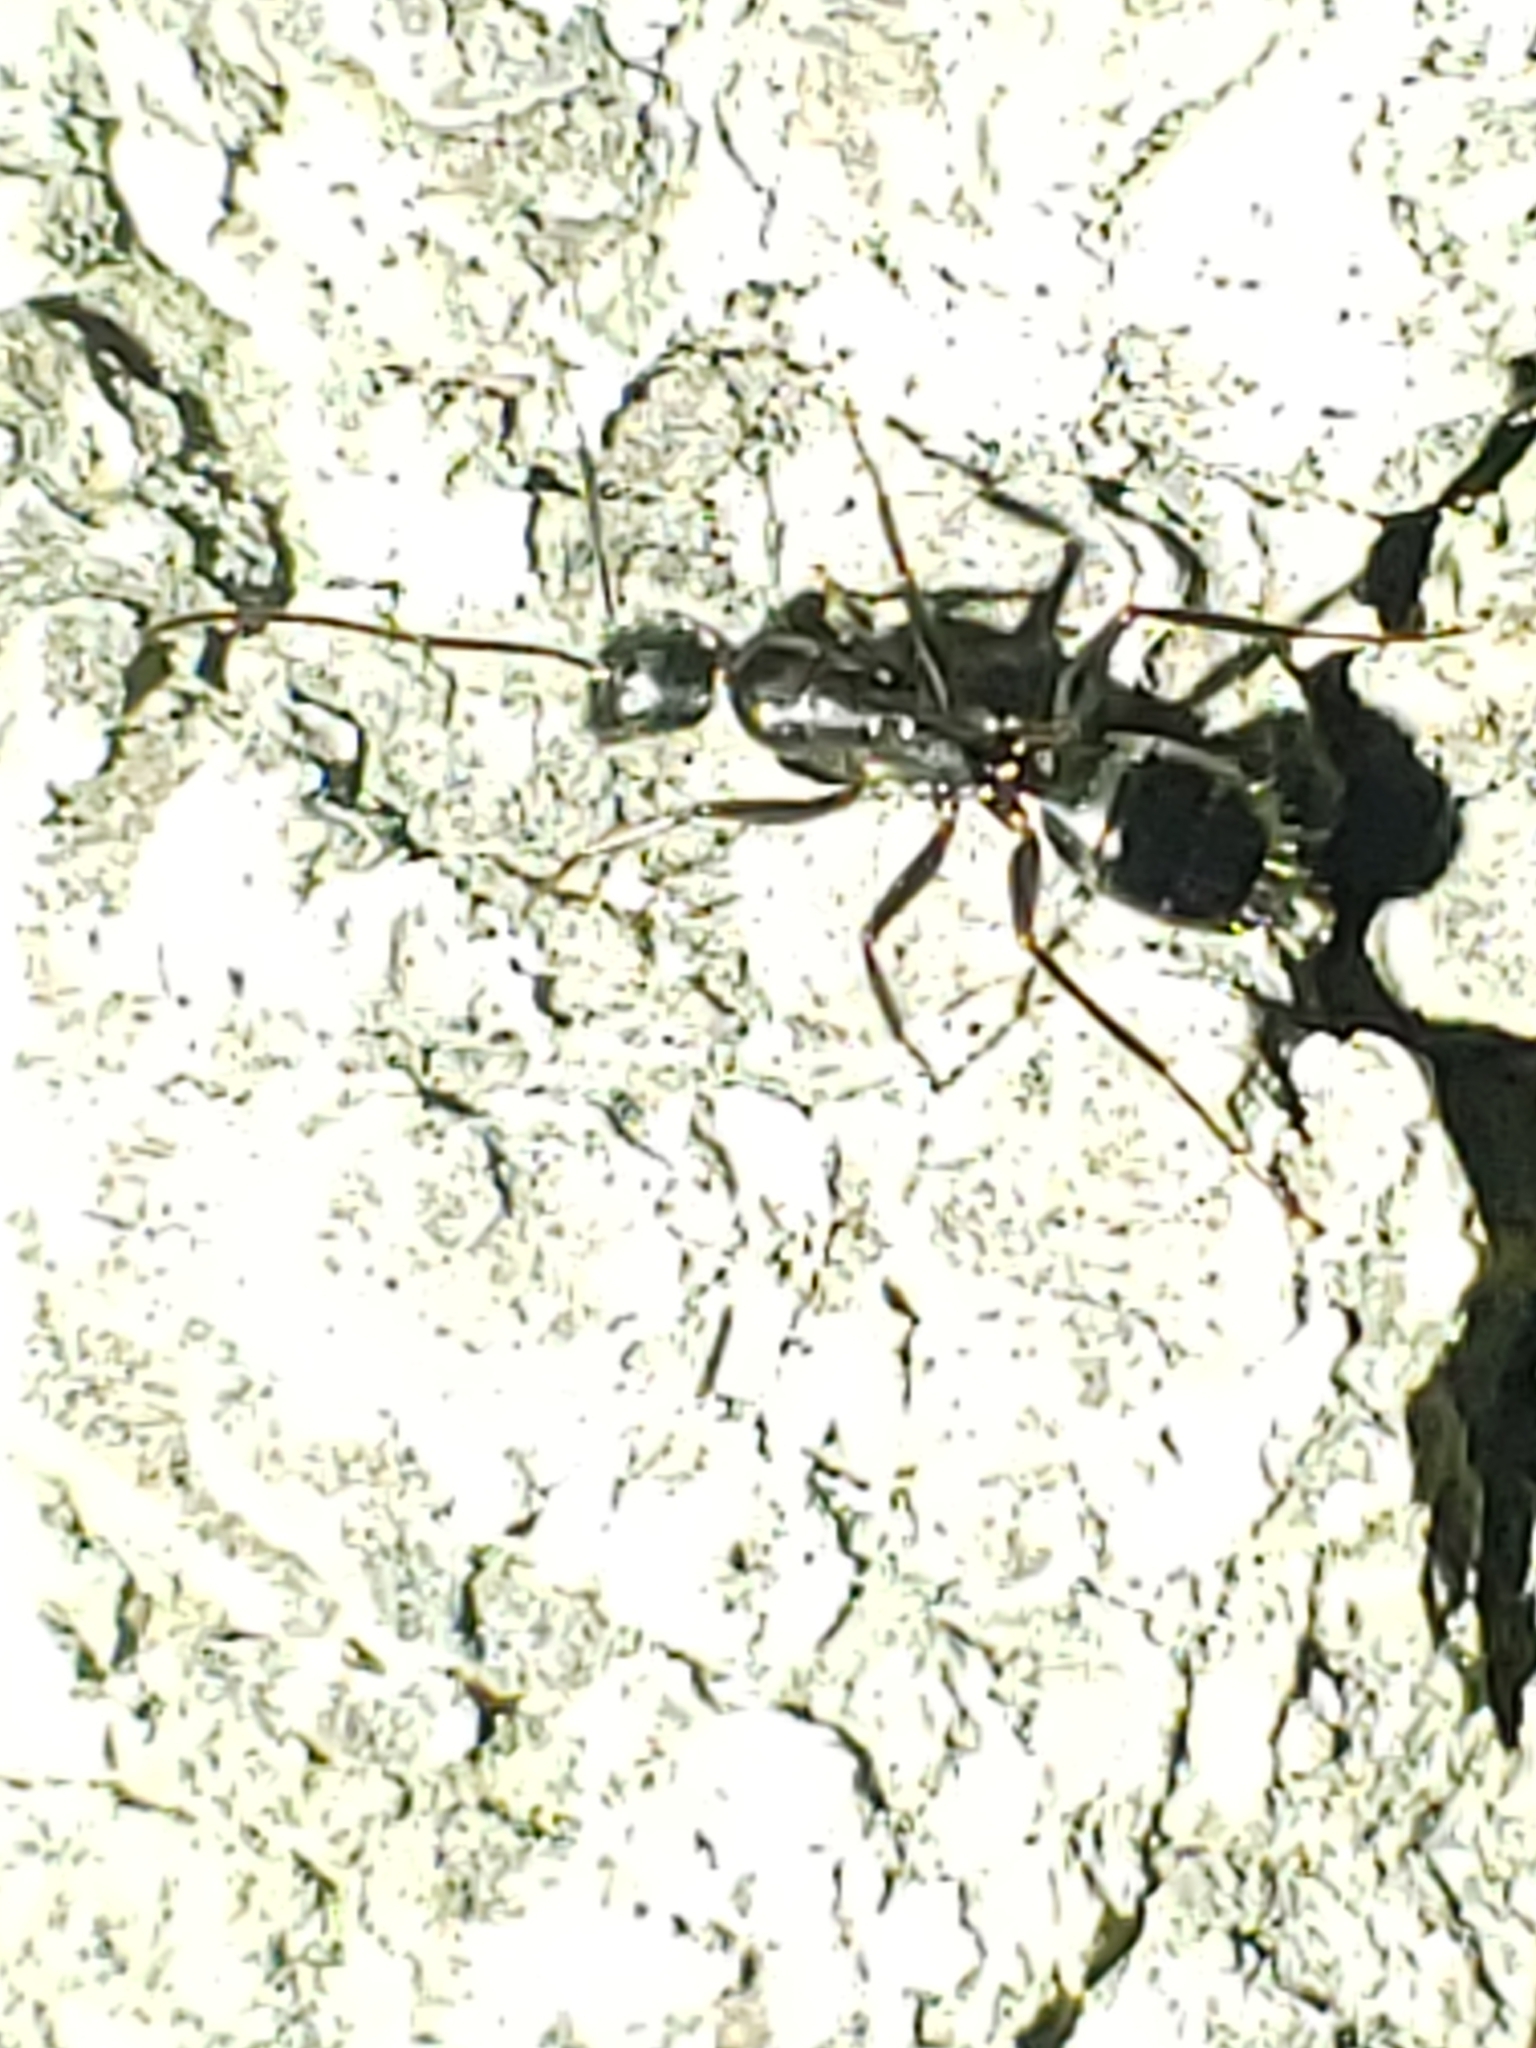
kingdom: Animalia
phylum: Arthropoda
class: Insecta
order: Hymenoptera
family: Formicidae
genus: Camponotus
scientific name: Camponotus
